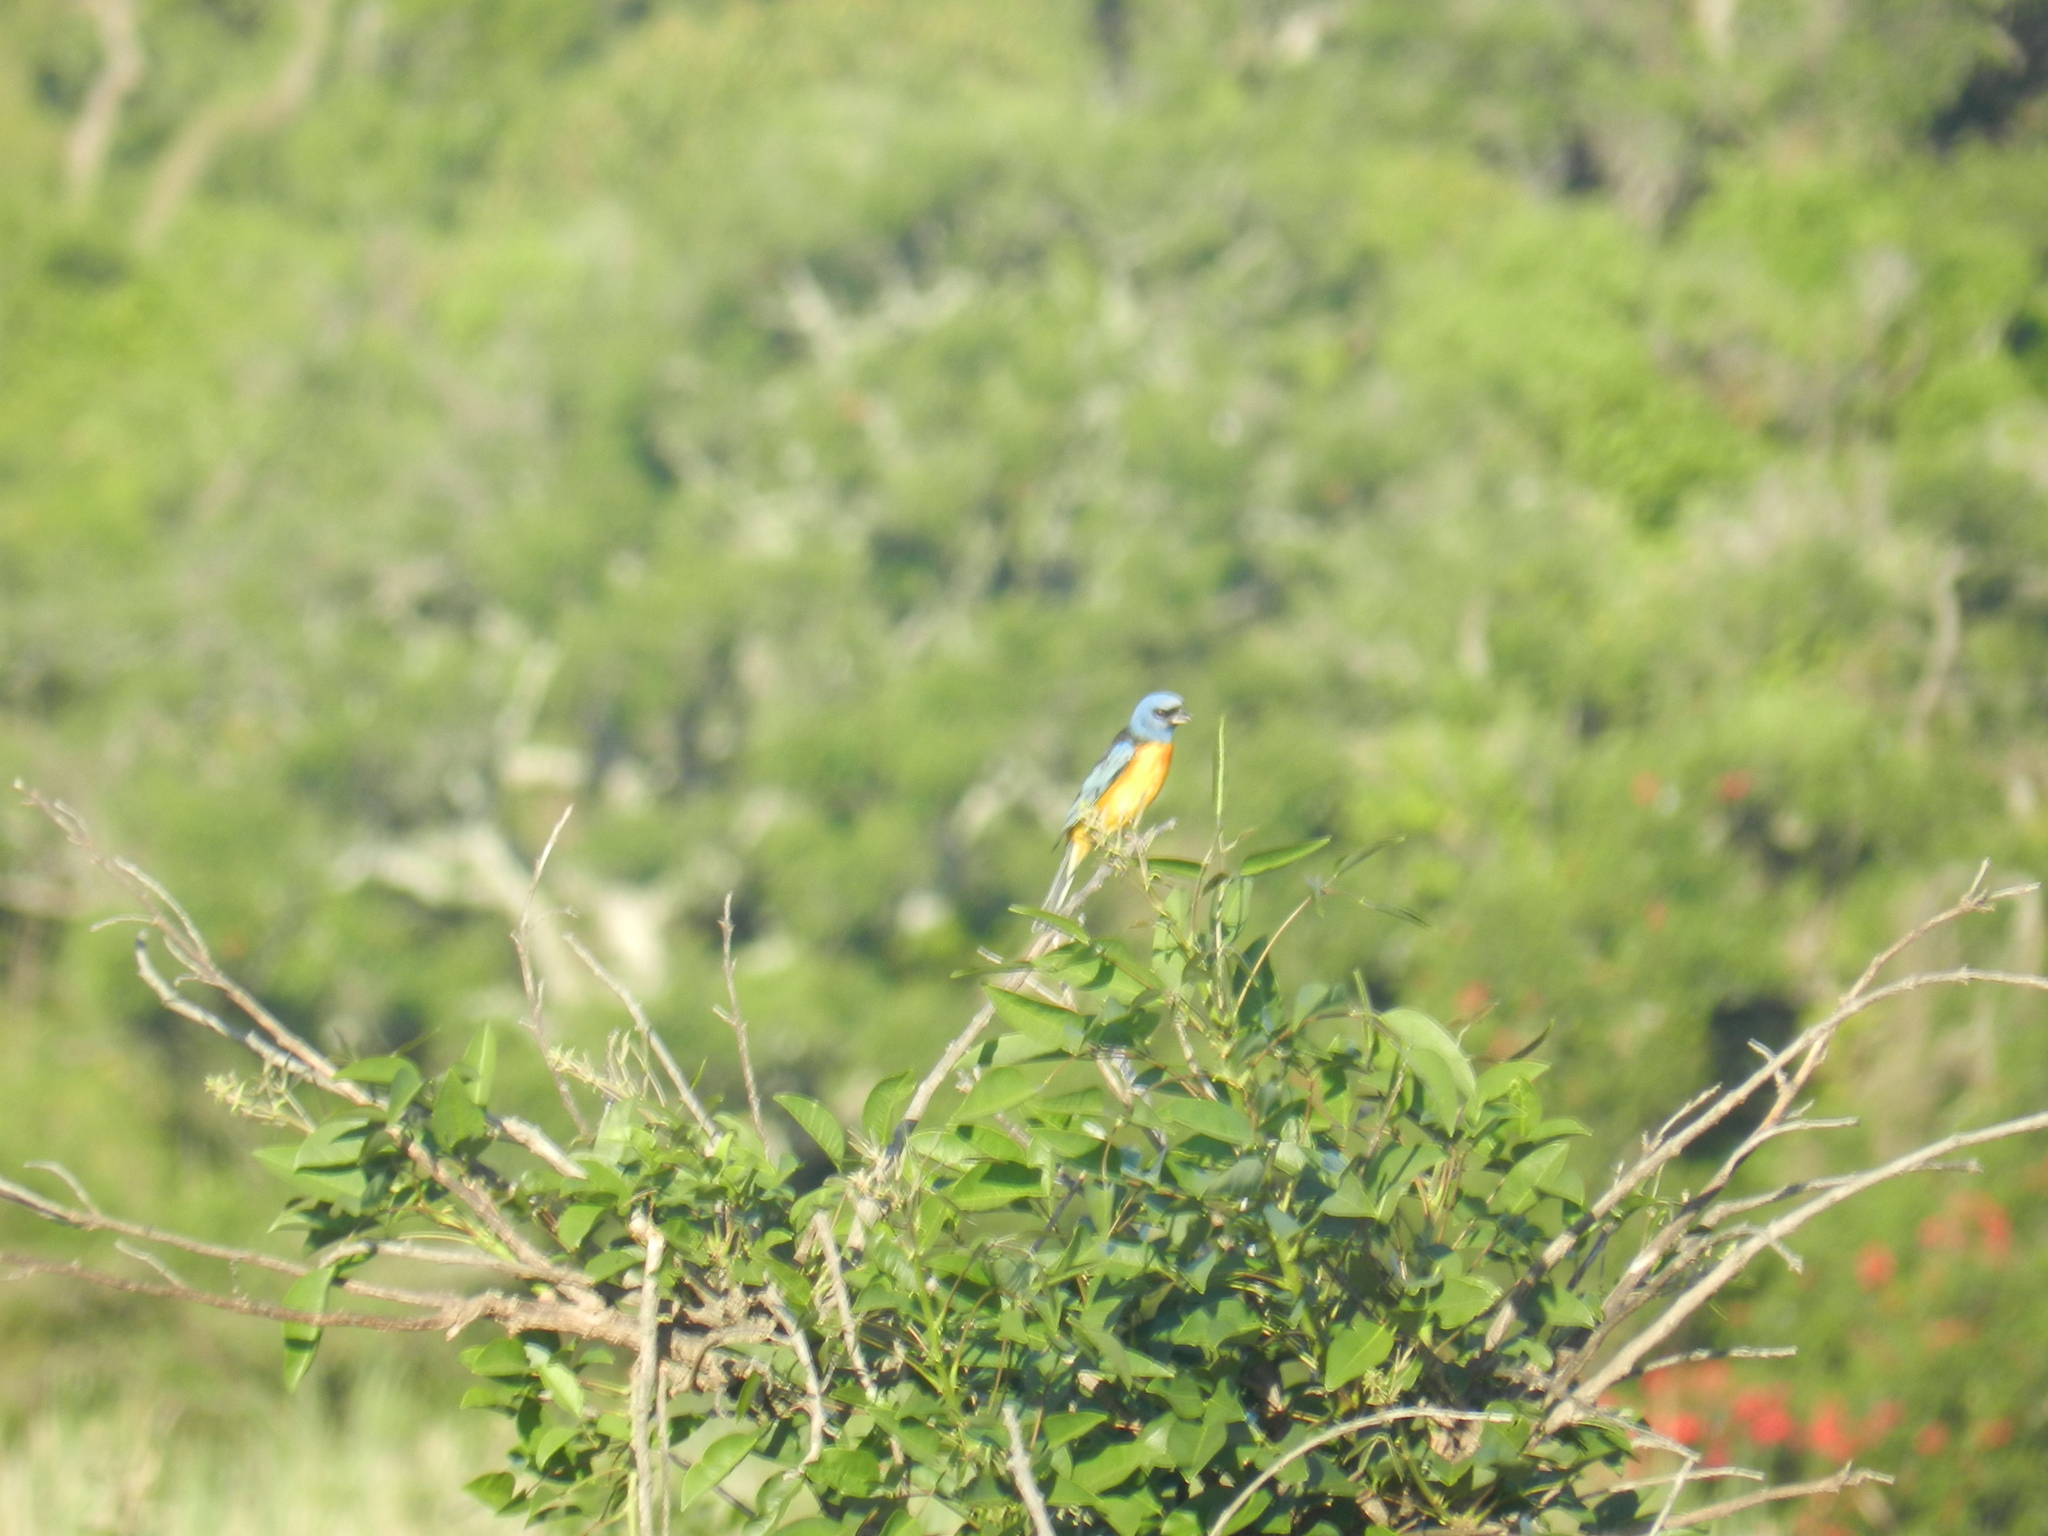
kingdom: Animalia
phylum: Chordata
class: Aves
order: Passeriformes
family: Thraupidae
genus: Rauenia
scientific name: Rauenia bonariensis
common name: Blue-and-yellow tanager
